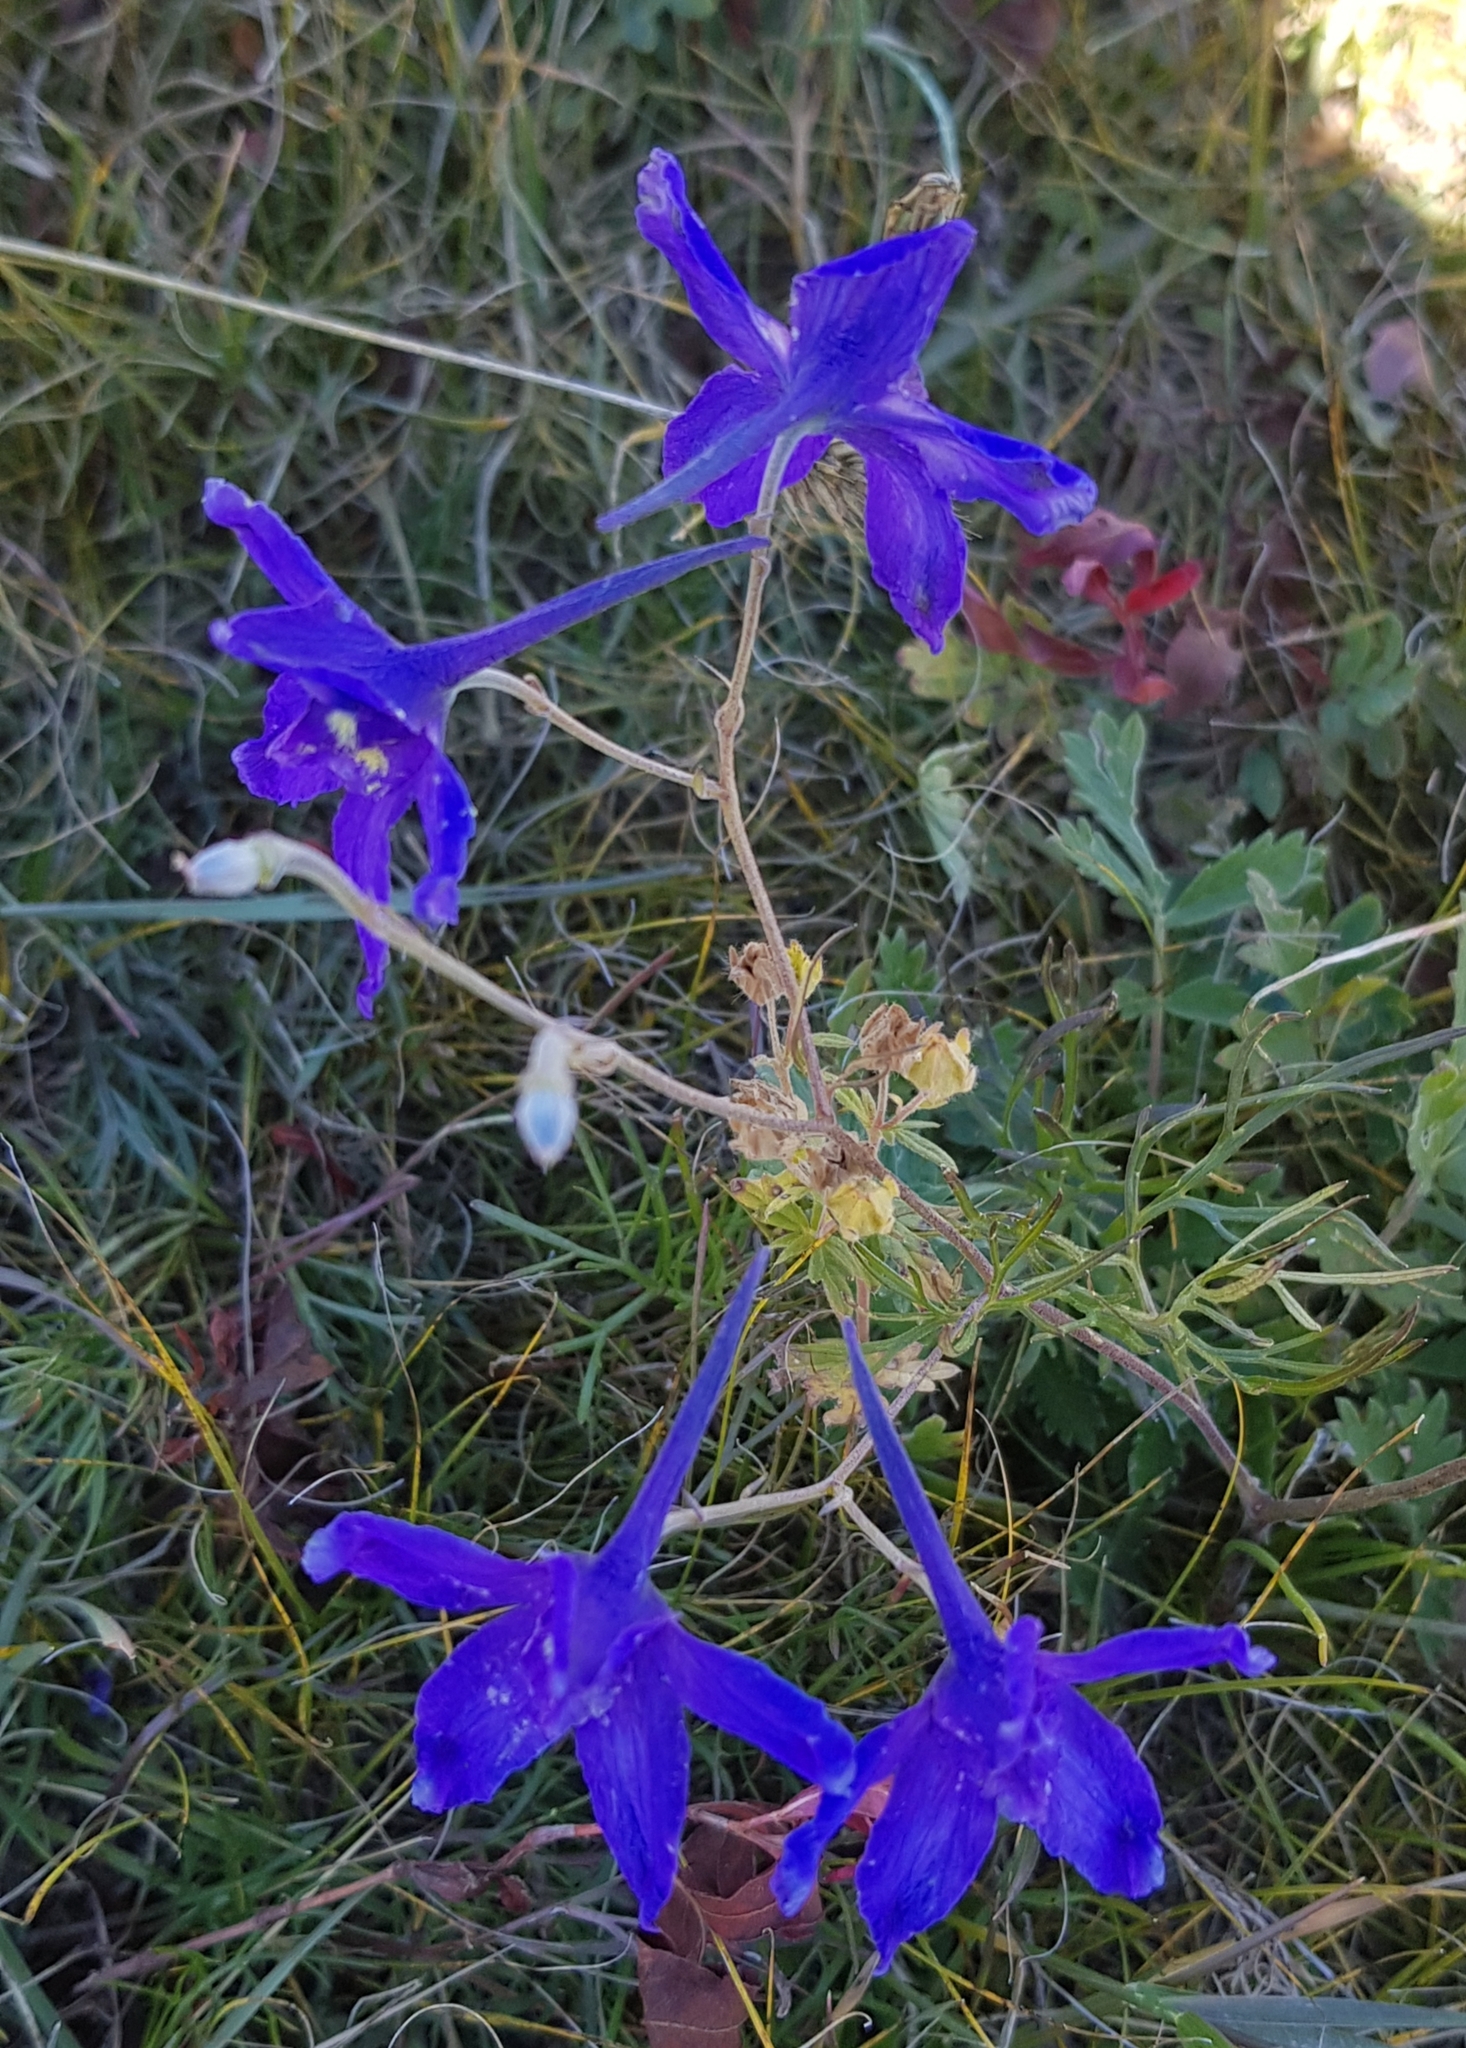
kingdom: Plantae
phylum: Tracheophyta
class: Magnoliopsida
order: Ranunculales
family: Ranunculaceae
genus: Delphinium
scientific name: Delphinium grandiflorum
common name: Siberian larkspur
